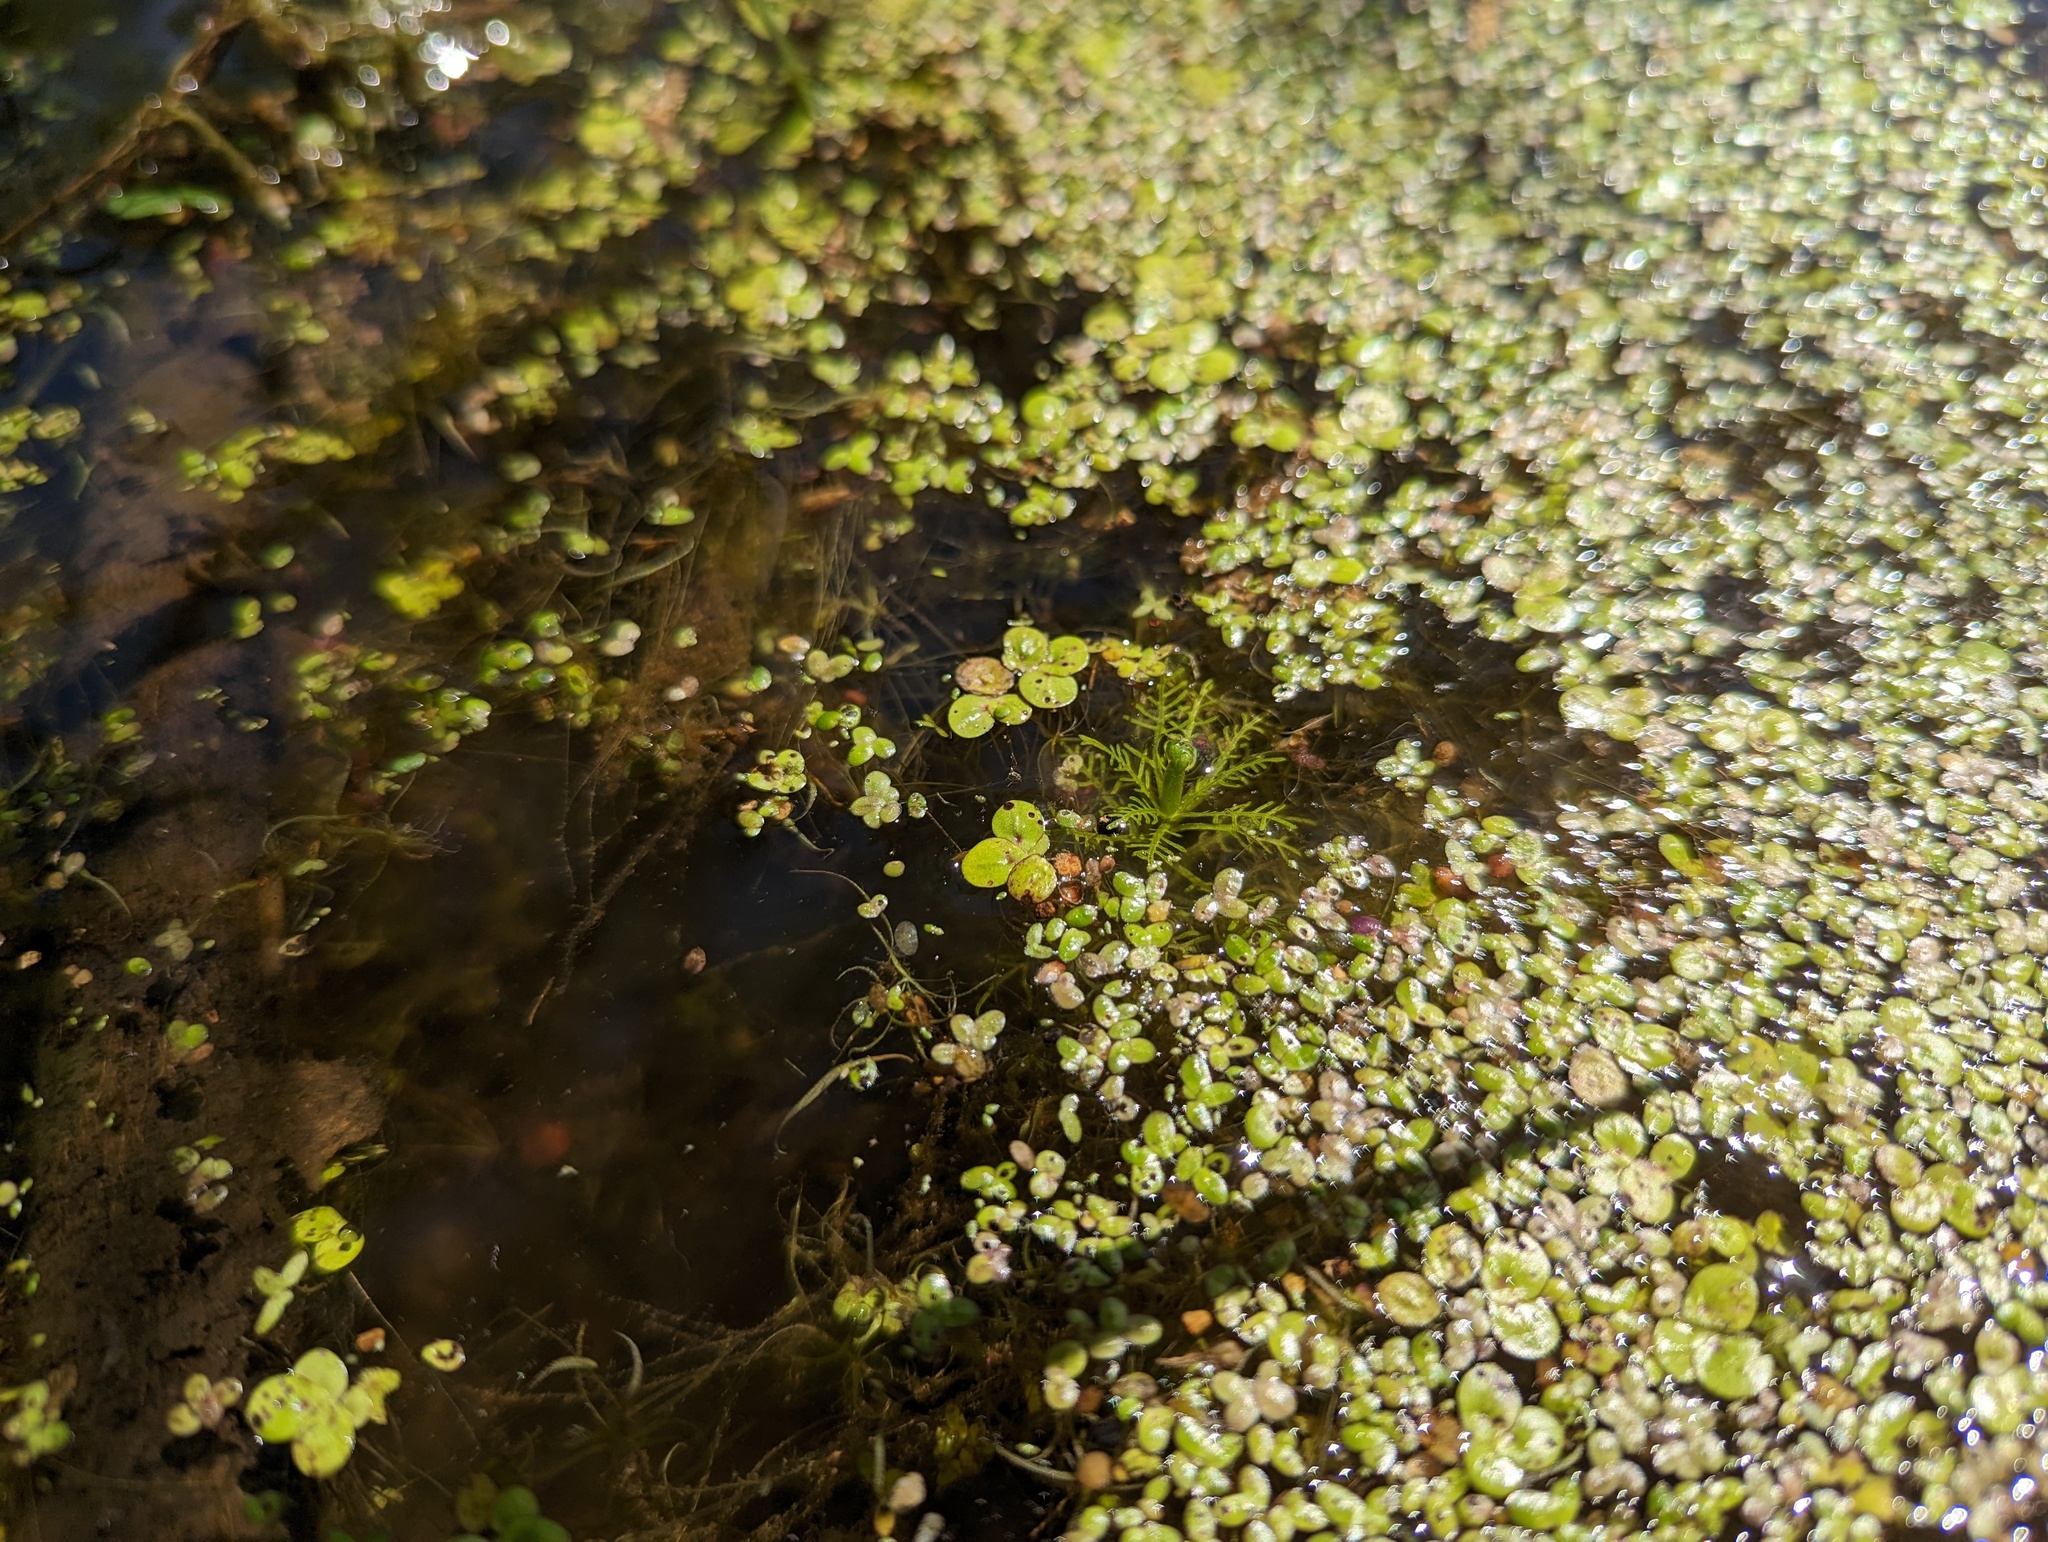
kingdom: Plantae
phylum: Tracheophyta
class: Magnoliopsida
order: Ericales
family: Primulaceae
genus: Hottonia
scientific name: Hottonia inflata
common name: American featherfoil
